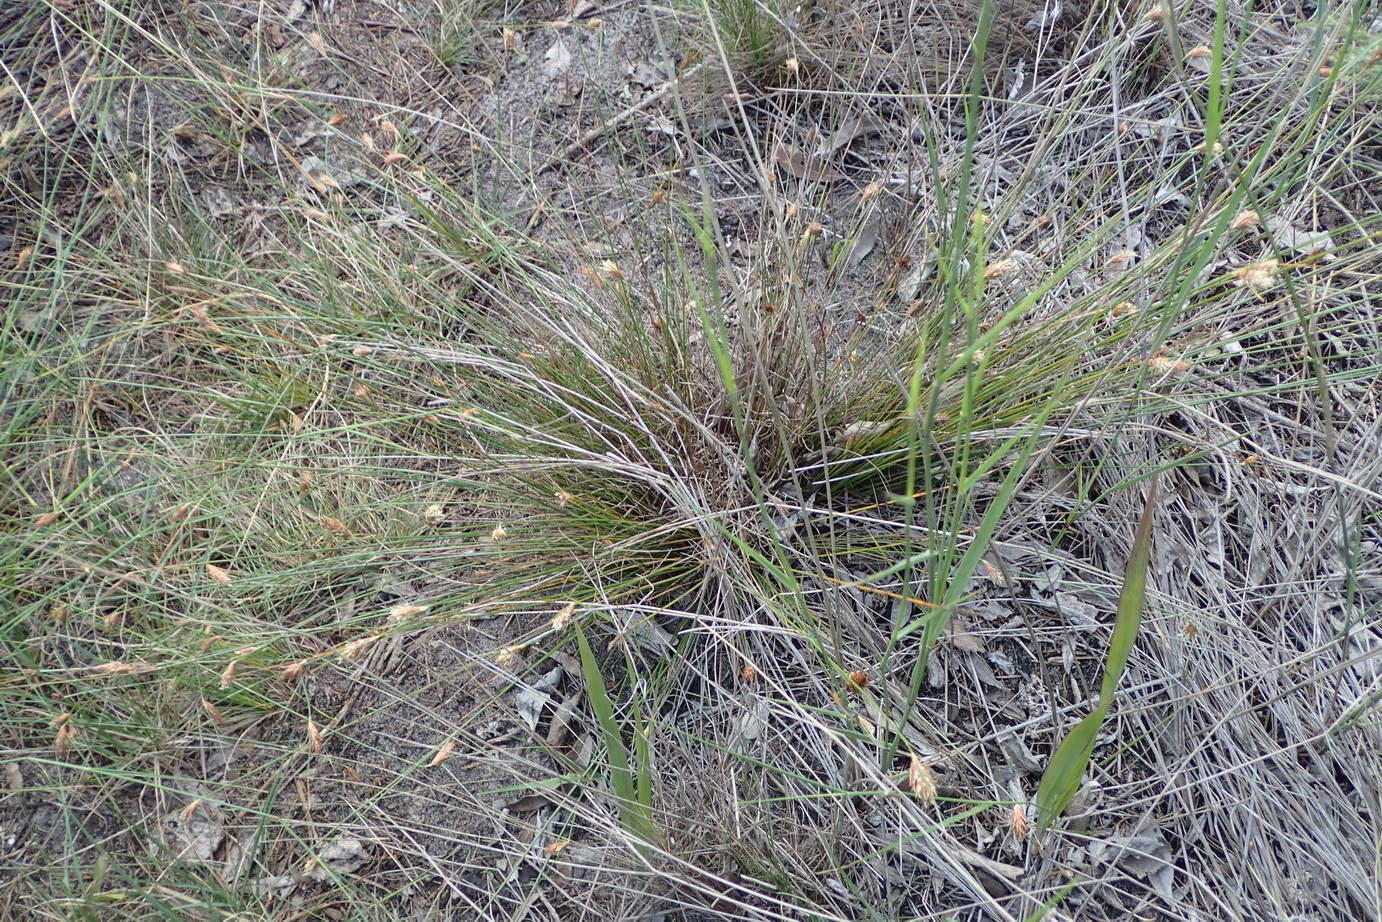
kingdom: Plantae
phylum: Tracheophyta
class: Liliopsida
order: Poales
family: Cyperaceae
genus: Ficinia
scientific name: Ficinia nigrescens
